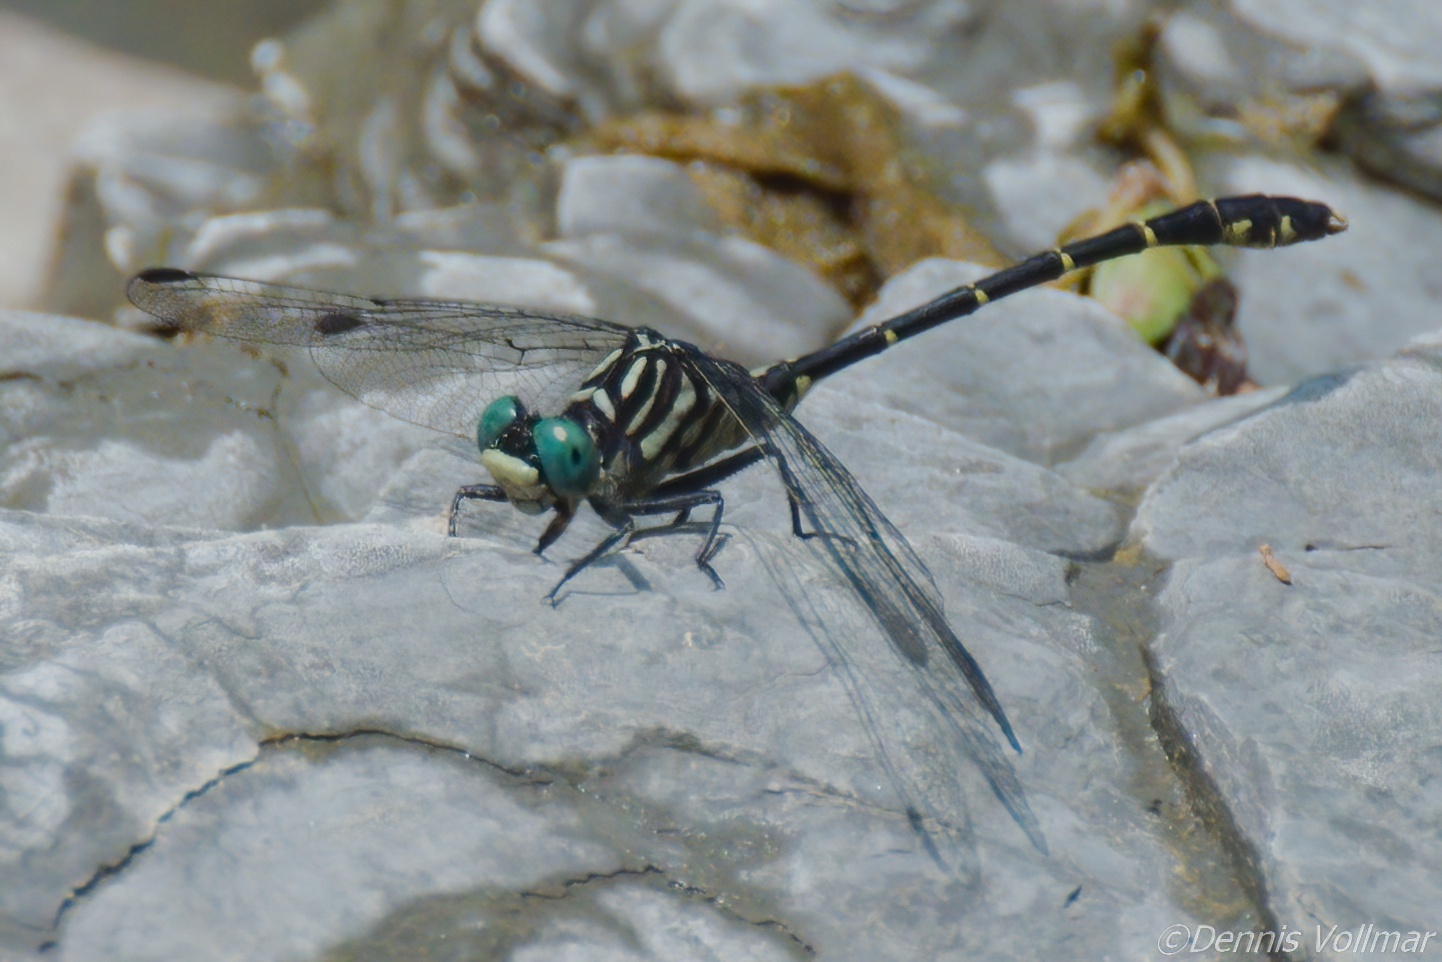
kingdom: Animalia
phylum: Arthropoda
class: Insecta
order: Odonata
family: Gomphidae
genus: Stylogomphus
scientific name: Stylogomphus albistylus
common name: Eastern least clubtail
